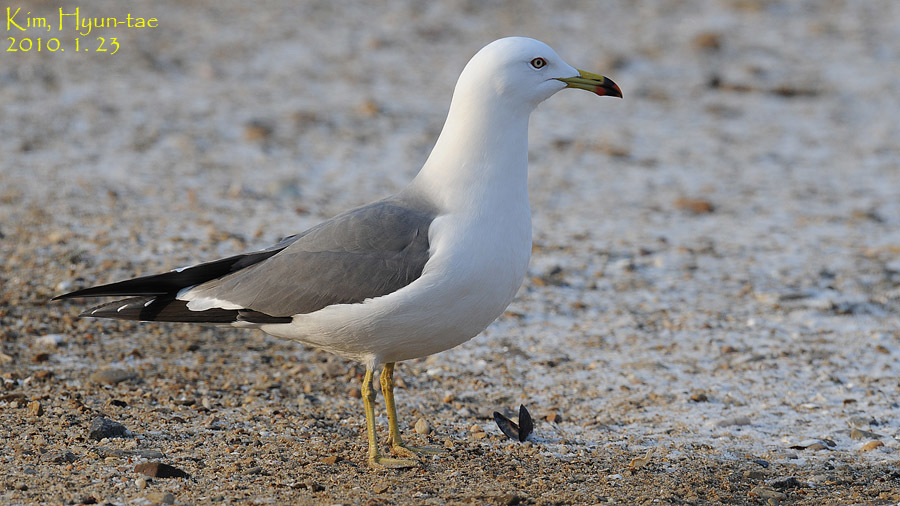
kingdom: Animalia
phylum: Chordata
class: Aves
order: Charadriiformes
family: Laridae
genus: Larus
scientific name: Larus crassirostris
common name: Black-tailed gull
